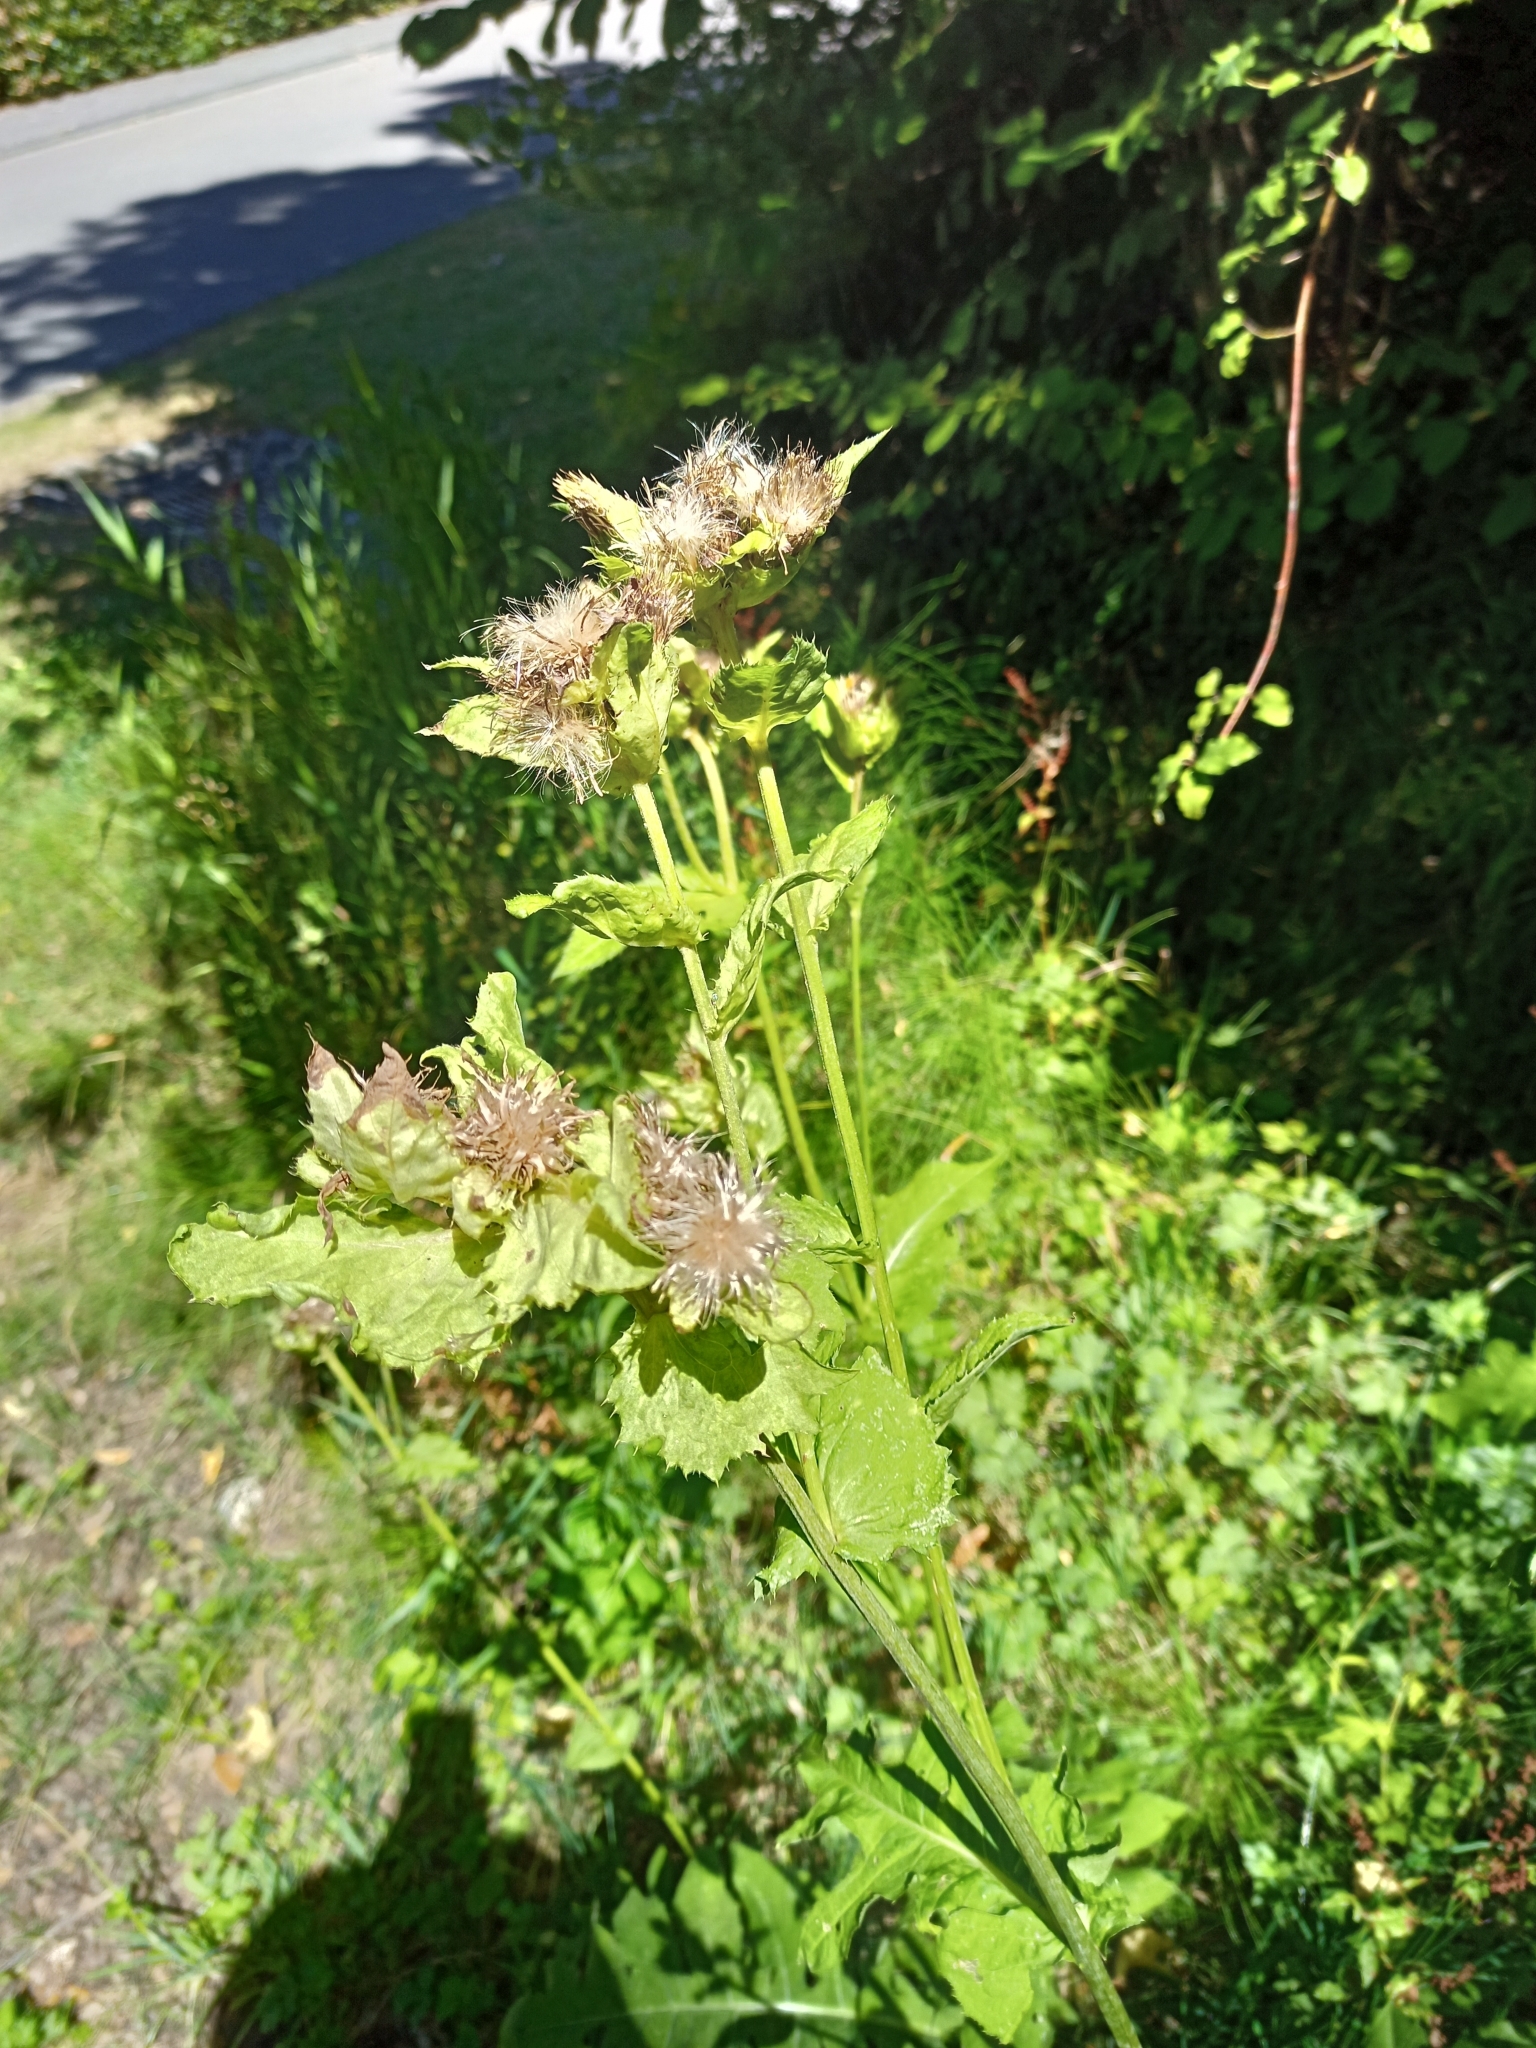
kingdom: Plantae
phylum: Tracheophyta
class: Magnoliopsida
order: Asterales
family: Asteraceae
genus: Cirsium
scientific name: Cirsium oleraceum
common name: Cabbage thistle
